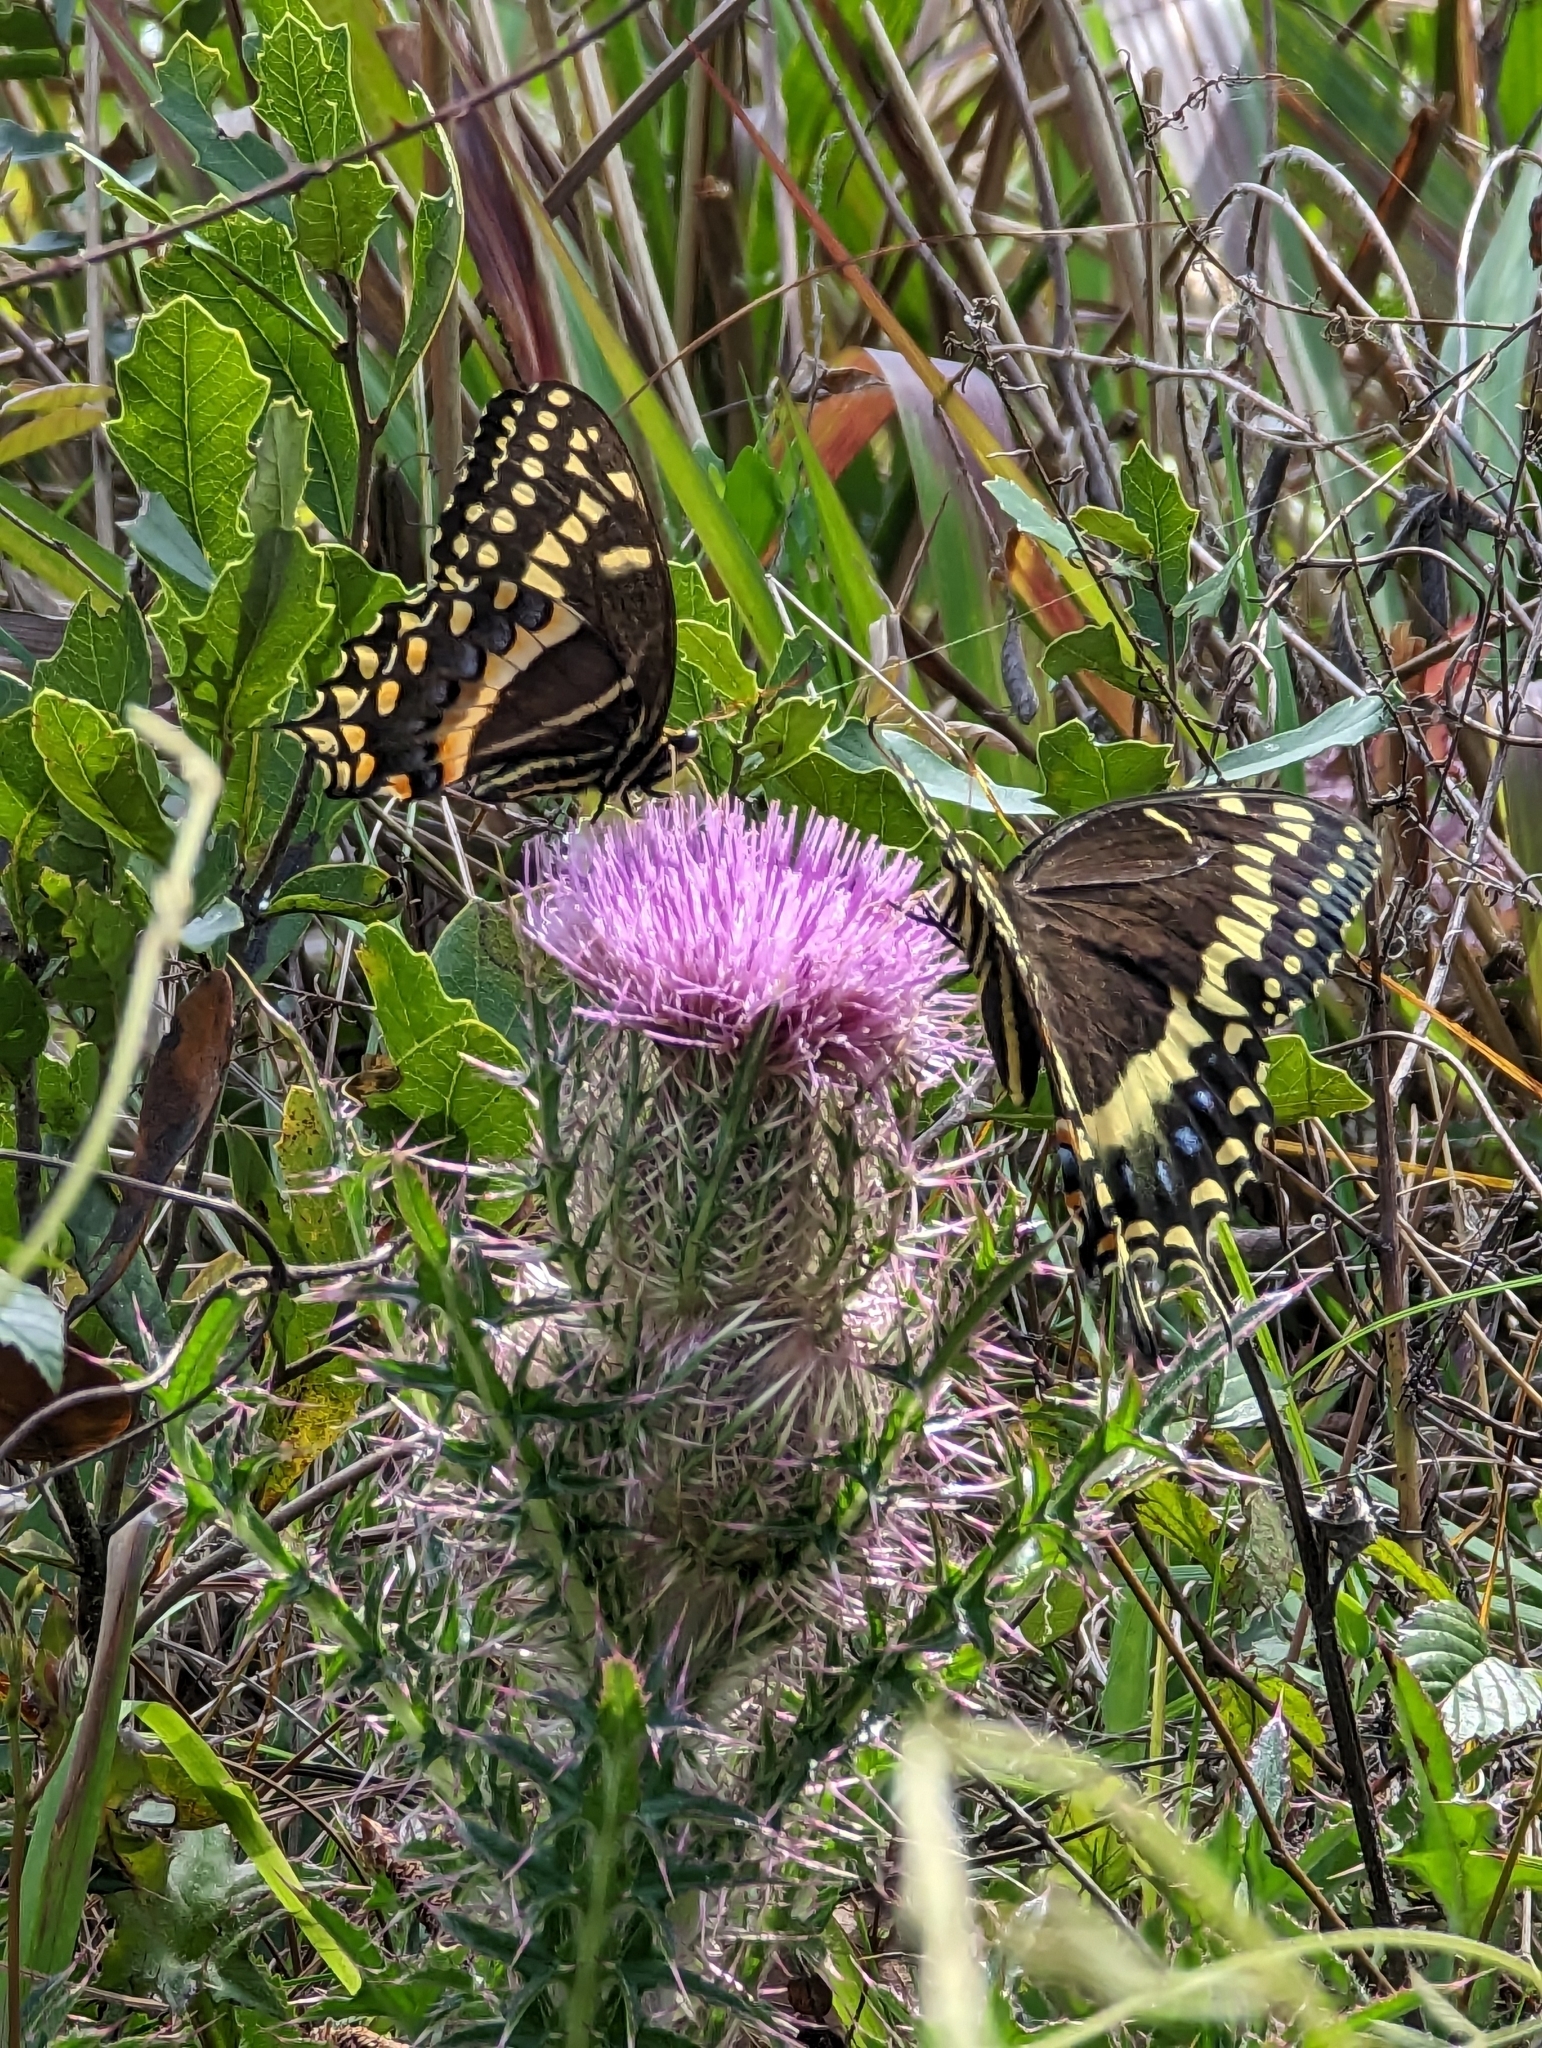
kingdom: Animalia
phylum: Arthropoda
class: Insecta
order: Lepidoptera
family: Papilionidae
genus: Papilio
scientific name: Papilio palamedes
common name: Palamedes swallowtail
